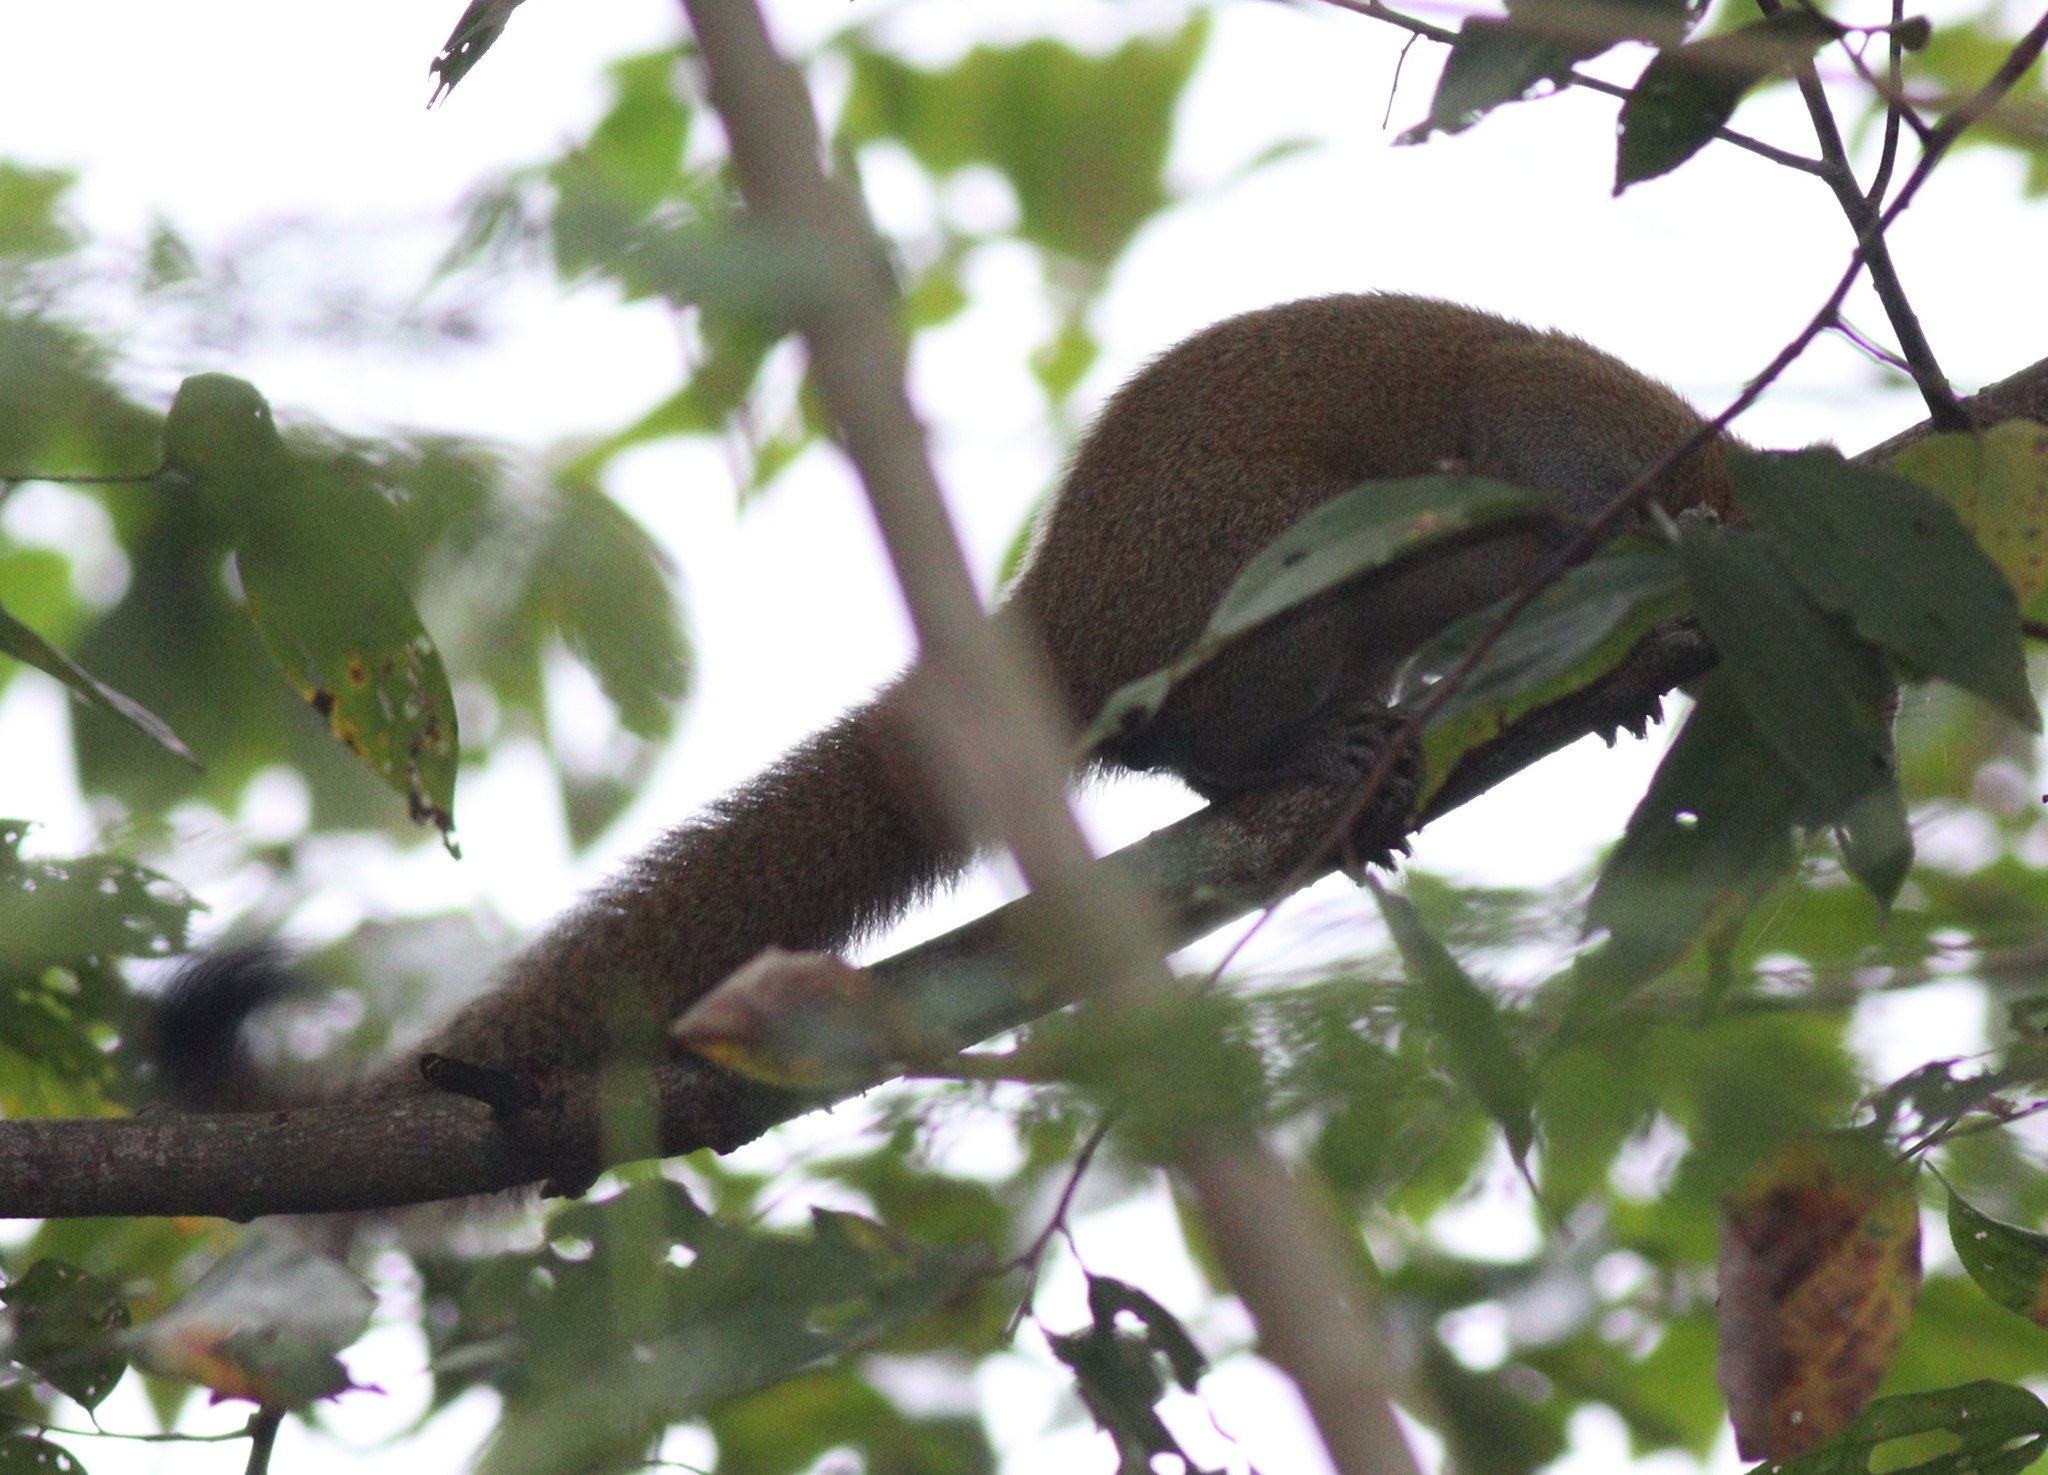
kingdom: Animalia
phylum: Chordata
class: Mammalia
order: Rodentia
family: Sciuridae
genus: Callosciurus
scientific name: Callosciurus caniceps
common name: Gray-bellied squirrel
